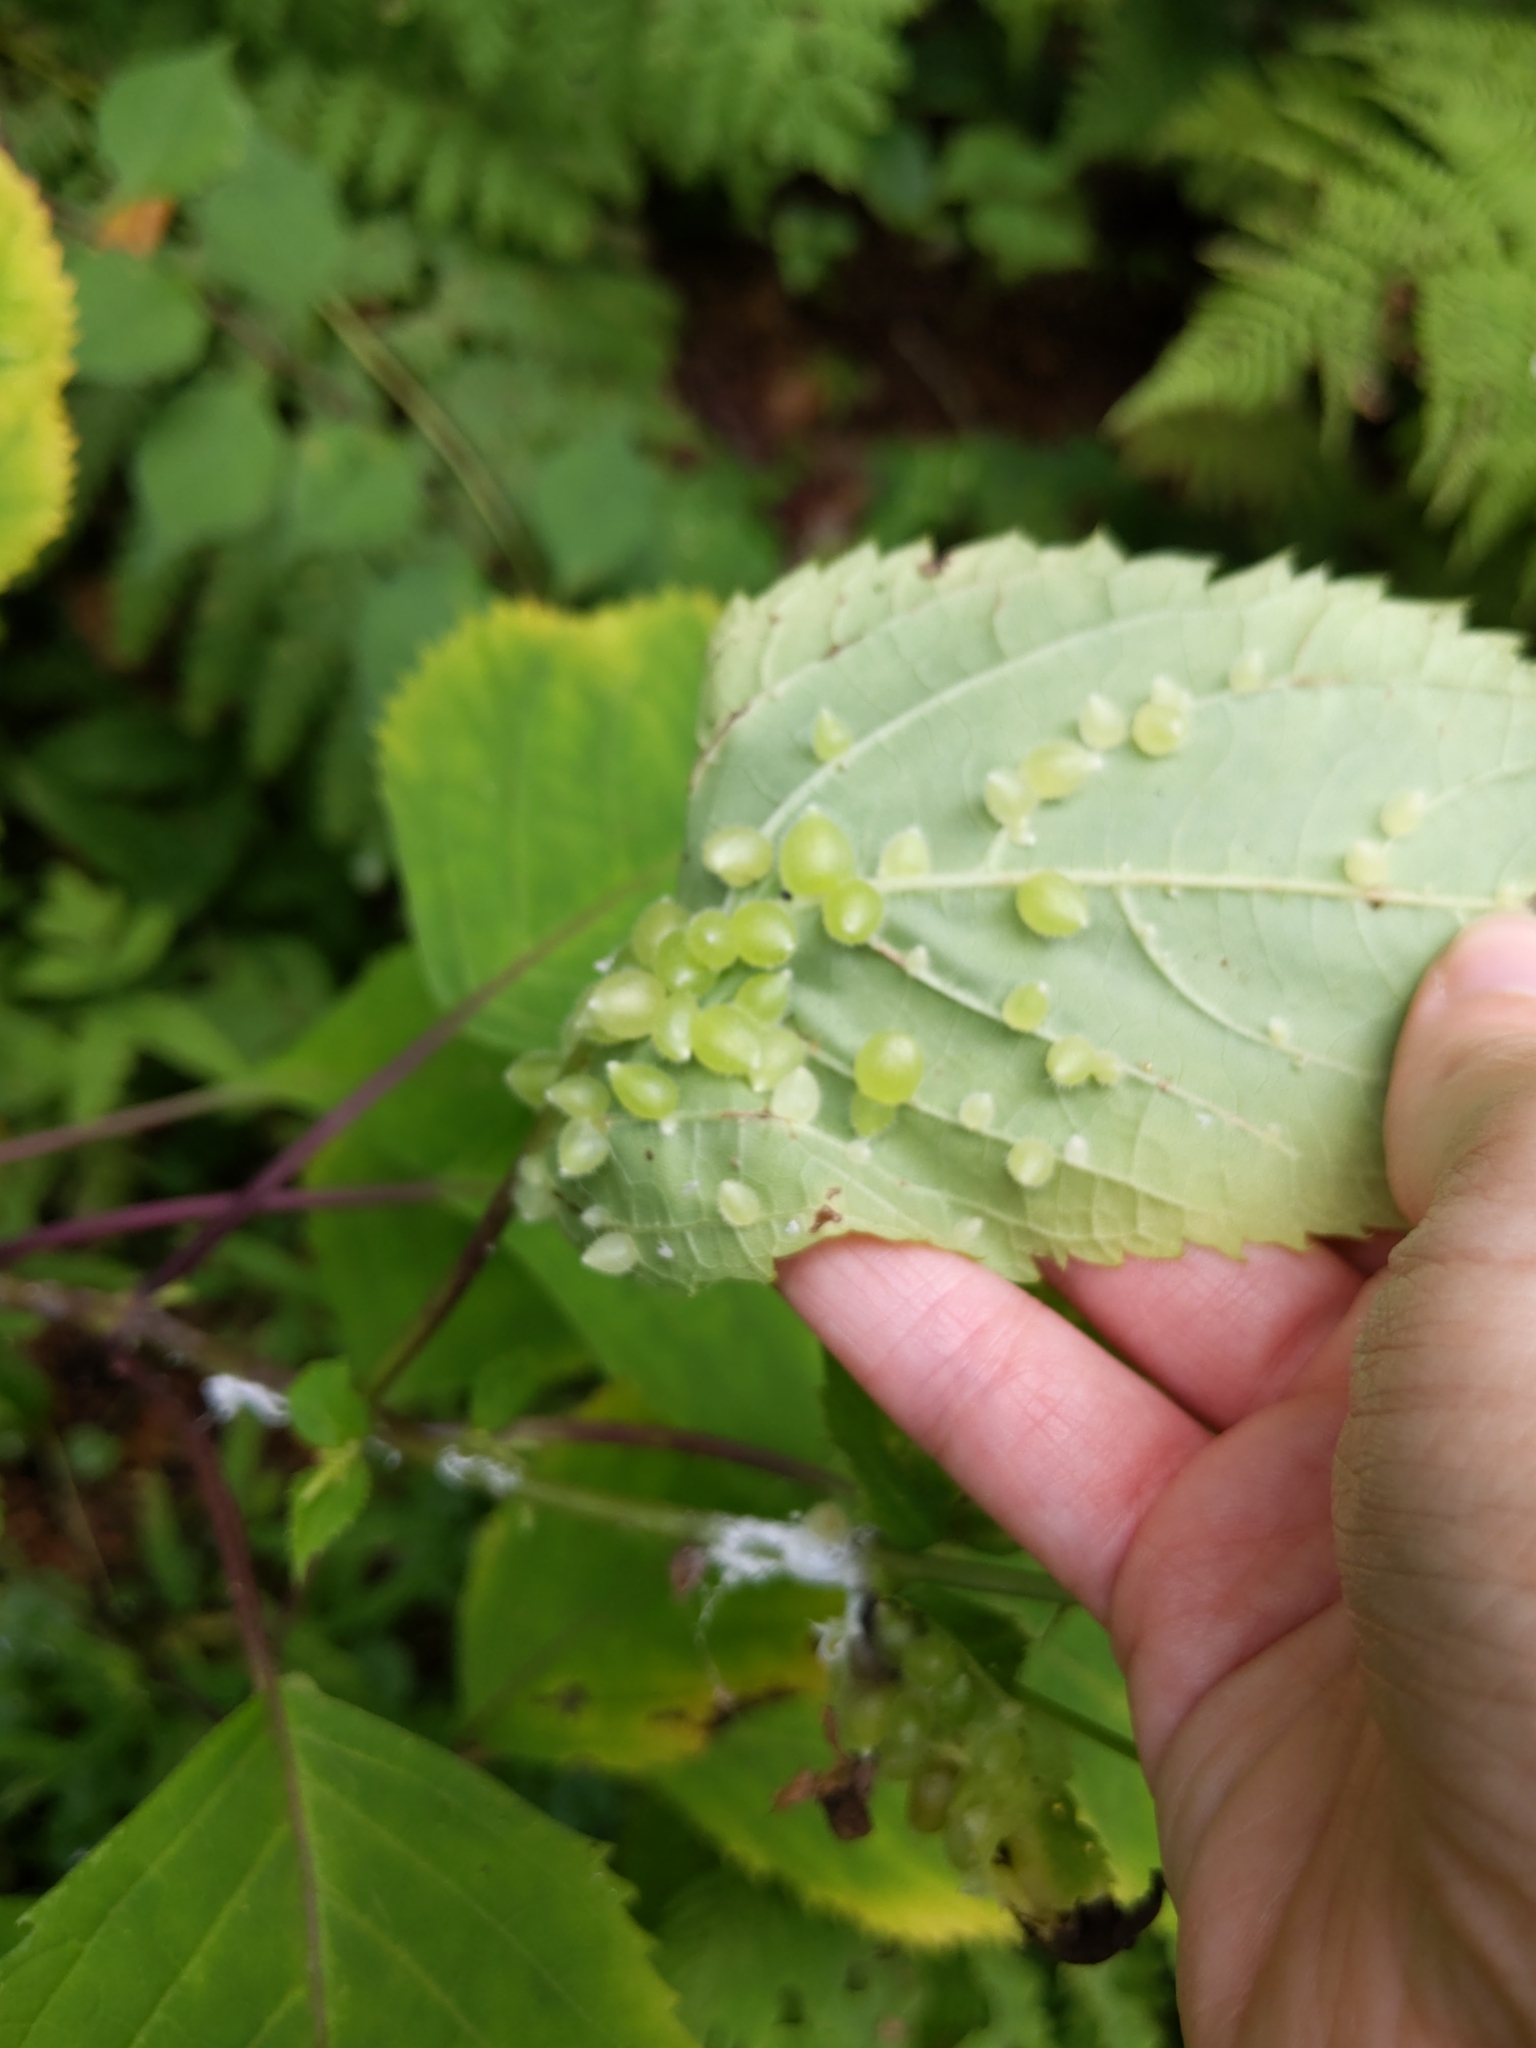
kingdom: Animalia
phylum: Arthropoda
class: Insecta
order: Diptera
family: Cecidomyiidae
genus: Dasineura
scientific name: Dasineura collinsoniae
